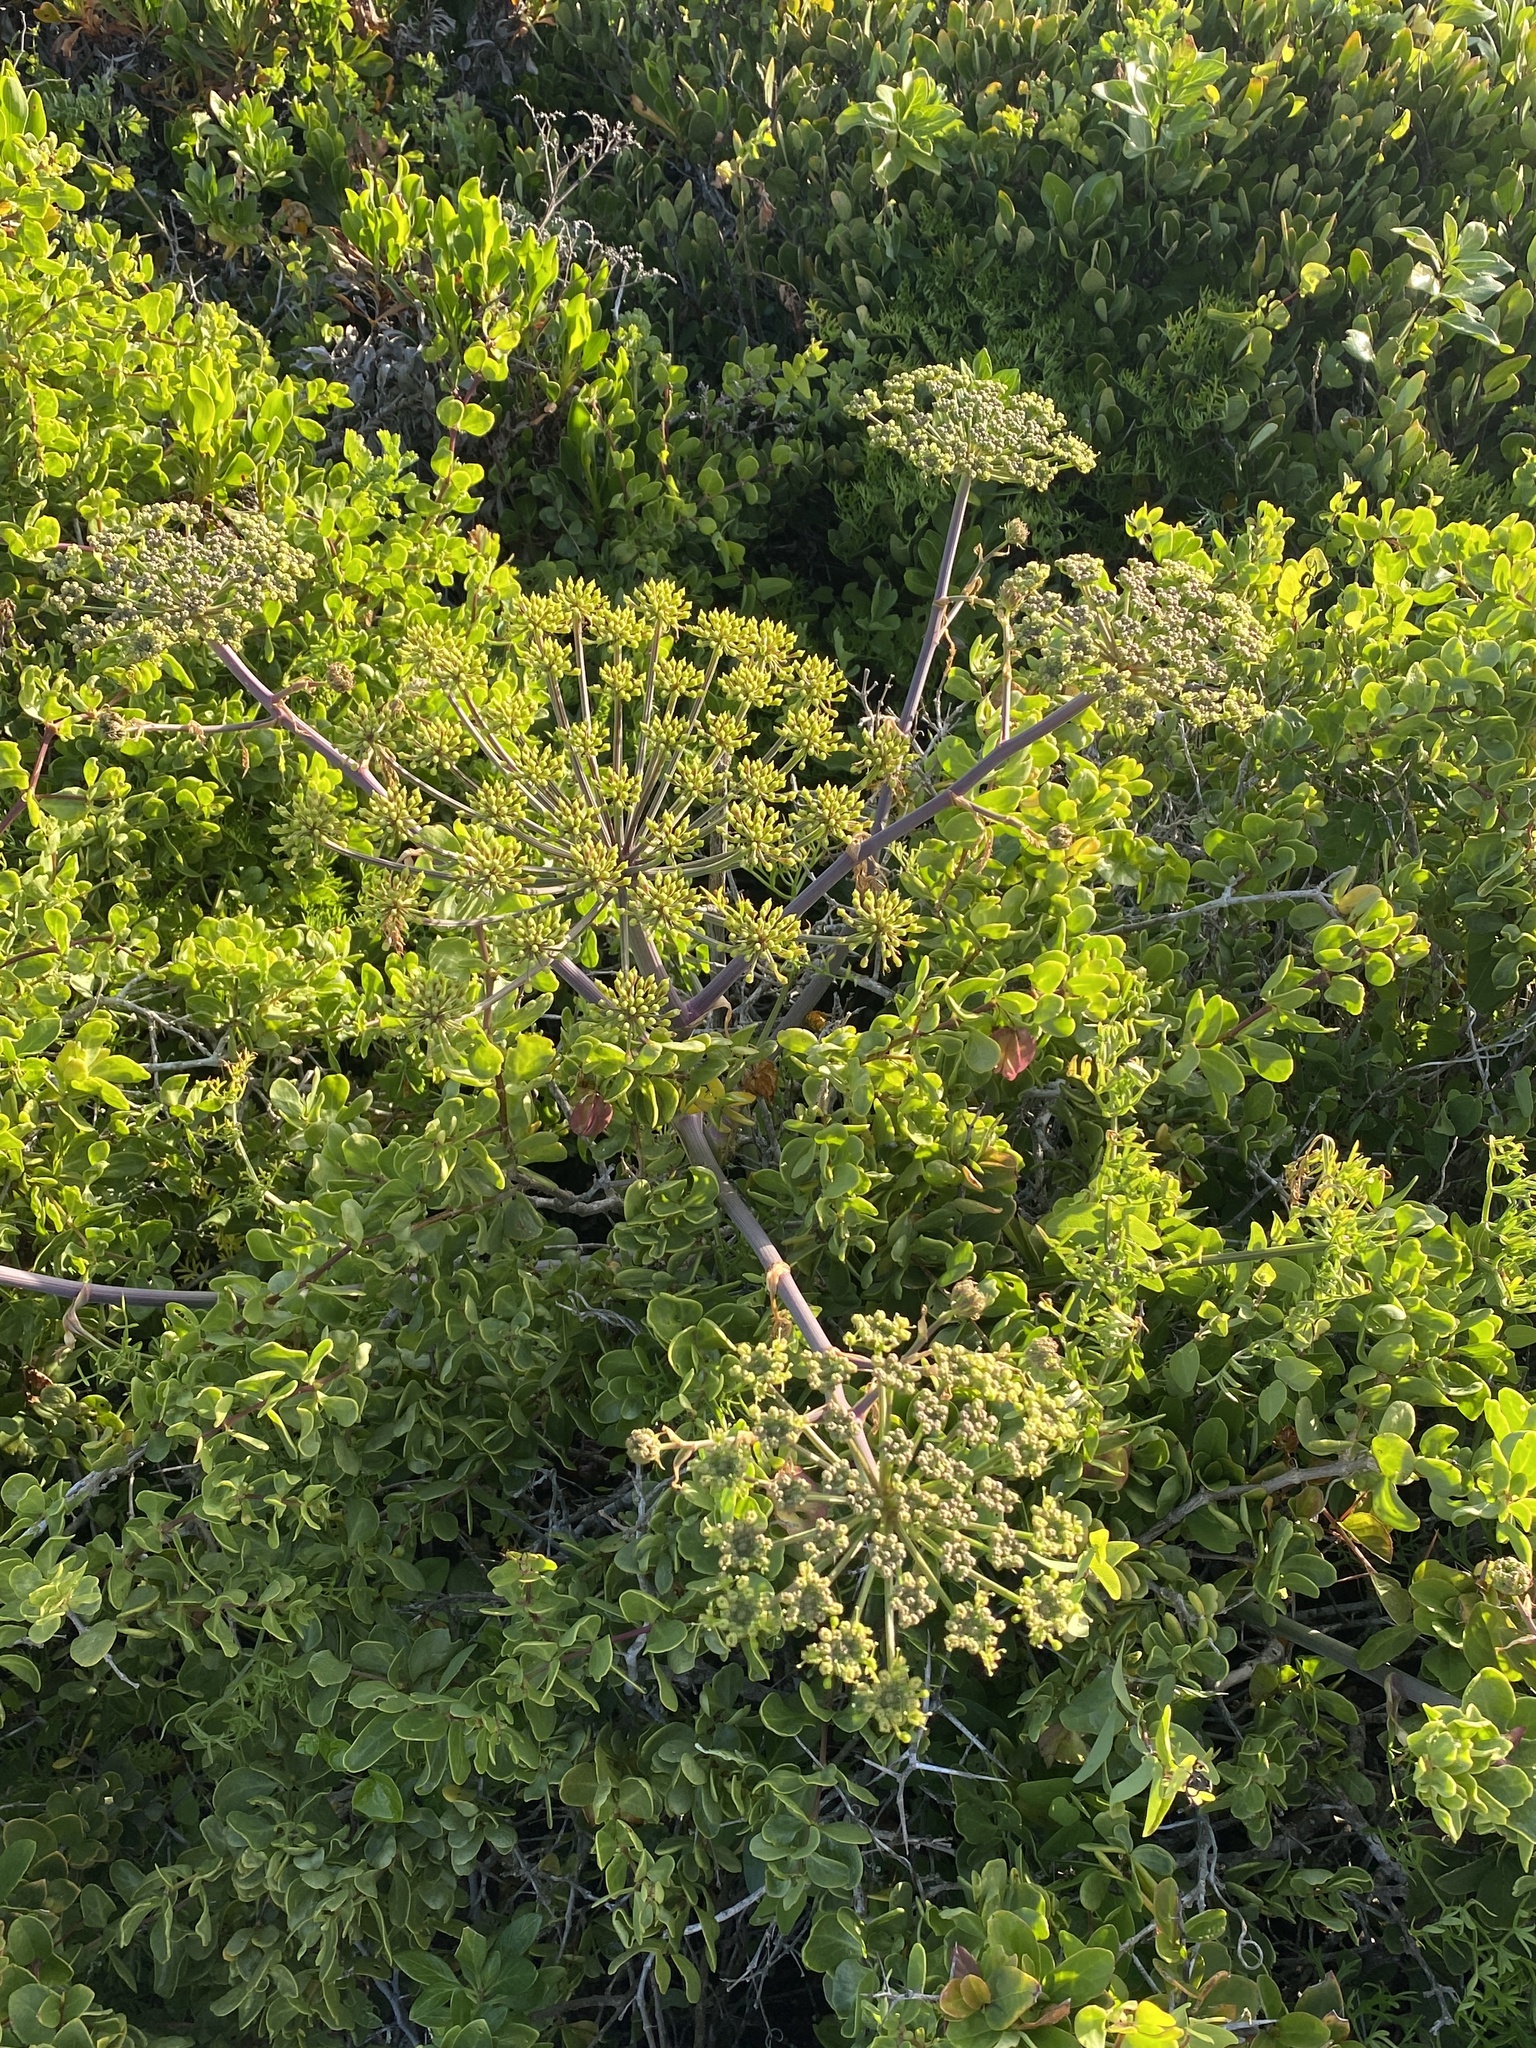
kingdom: Plantae
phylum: Tracheophyta
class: Magnoliopsida
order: Apiales
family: Apiaceae
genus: Cynorhiza
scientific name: Cynorhiza typica
